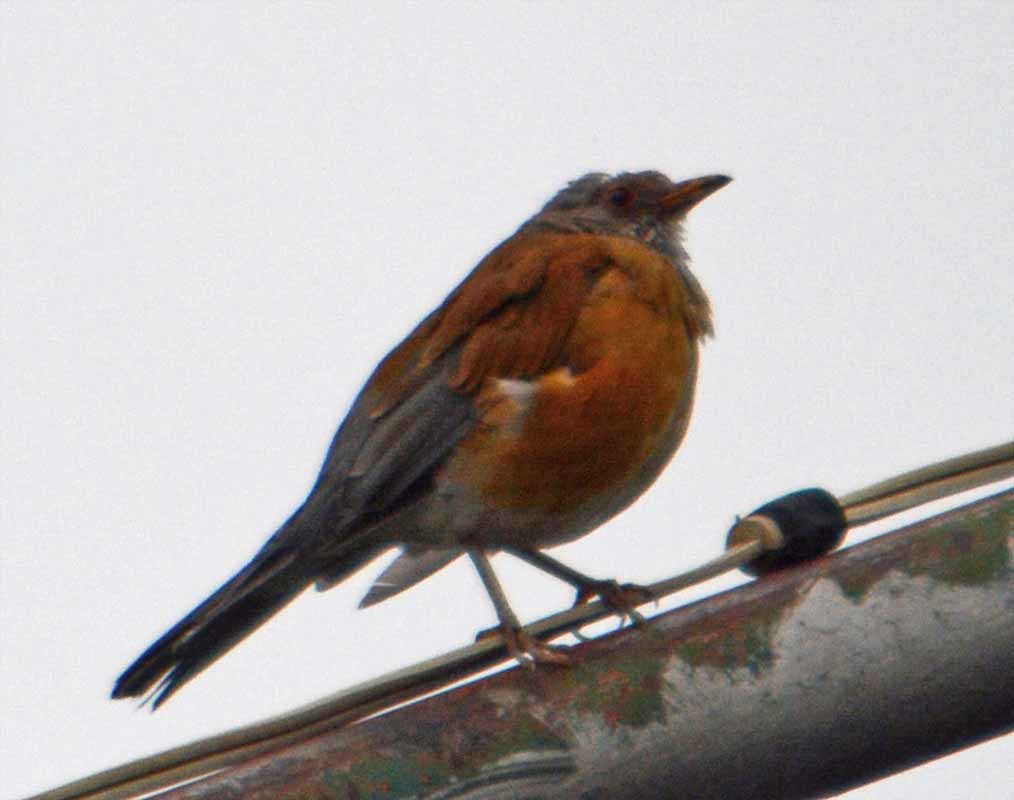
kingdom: Animalia
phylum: Chordata
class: Aves
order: Passeriformes
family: Turdidae
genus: Turdus
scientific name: Turdus rufopalliatus
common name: Rufous-backed robin
